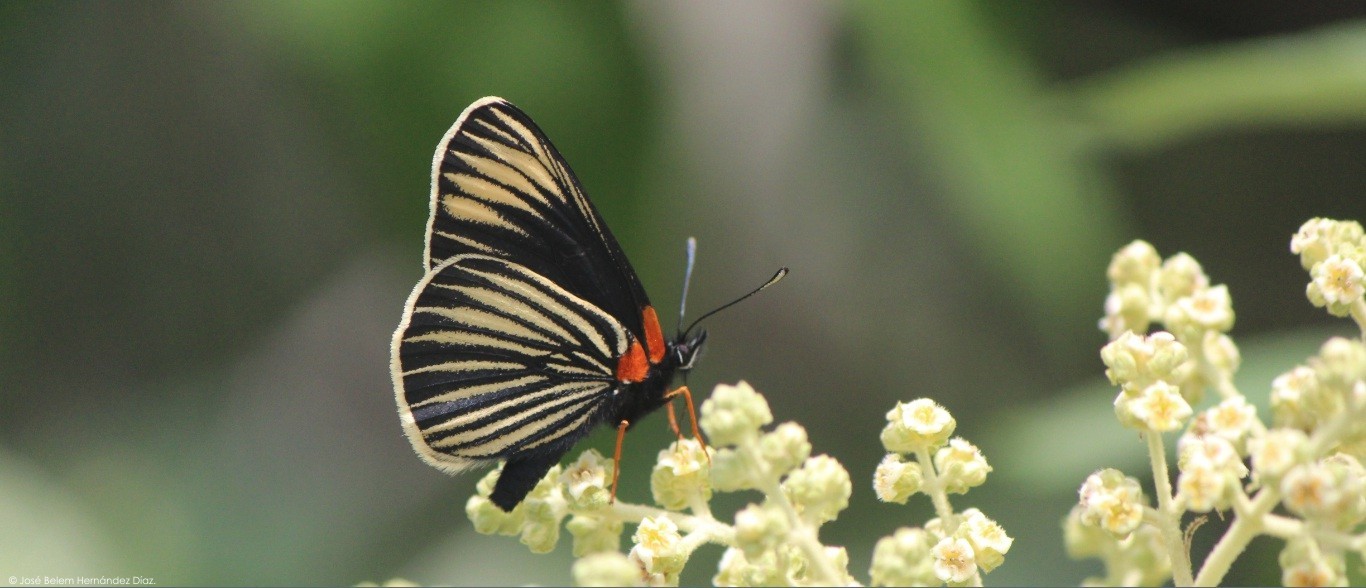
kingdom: Animalia
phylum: Arthropoda
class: Insecta
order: Lepidoptera
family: Nymphalidae
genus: Chlosyne
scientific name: Chlosyne ehrenbergii
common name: White-rayed patch
